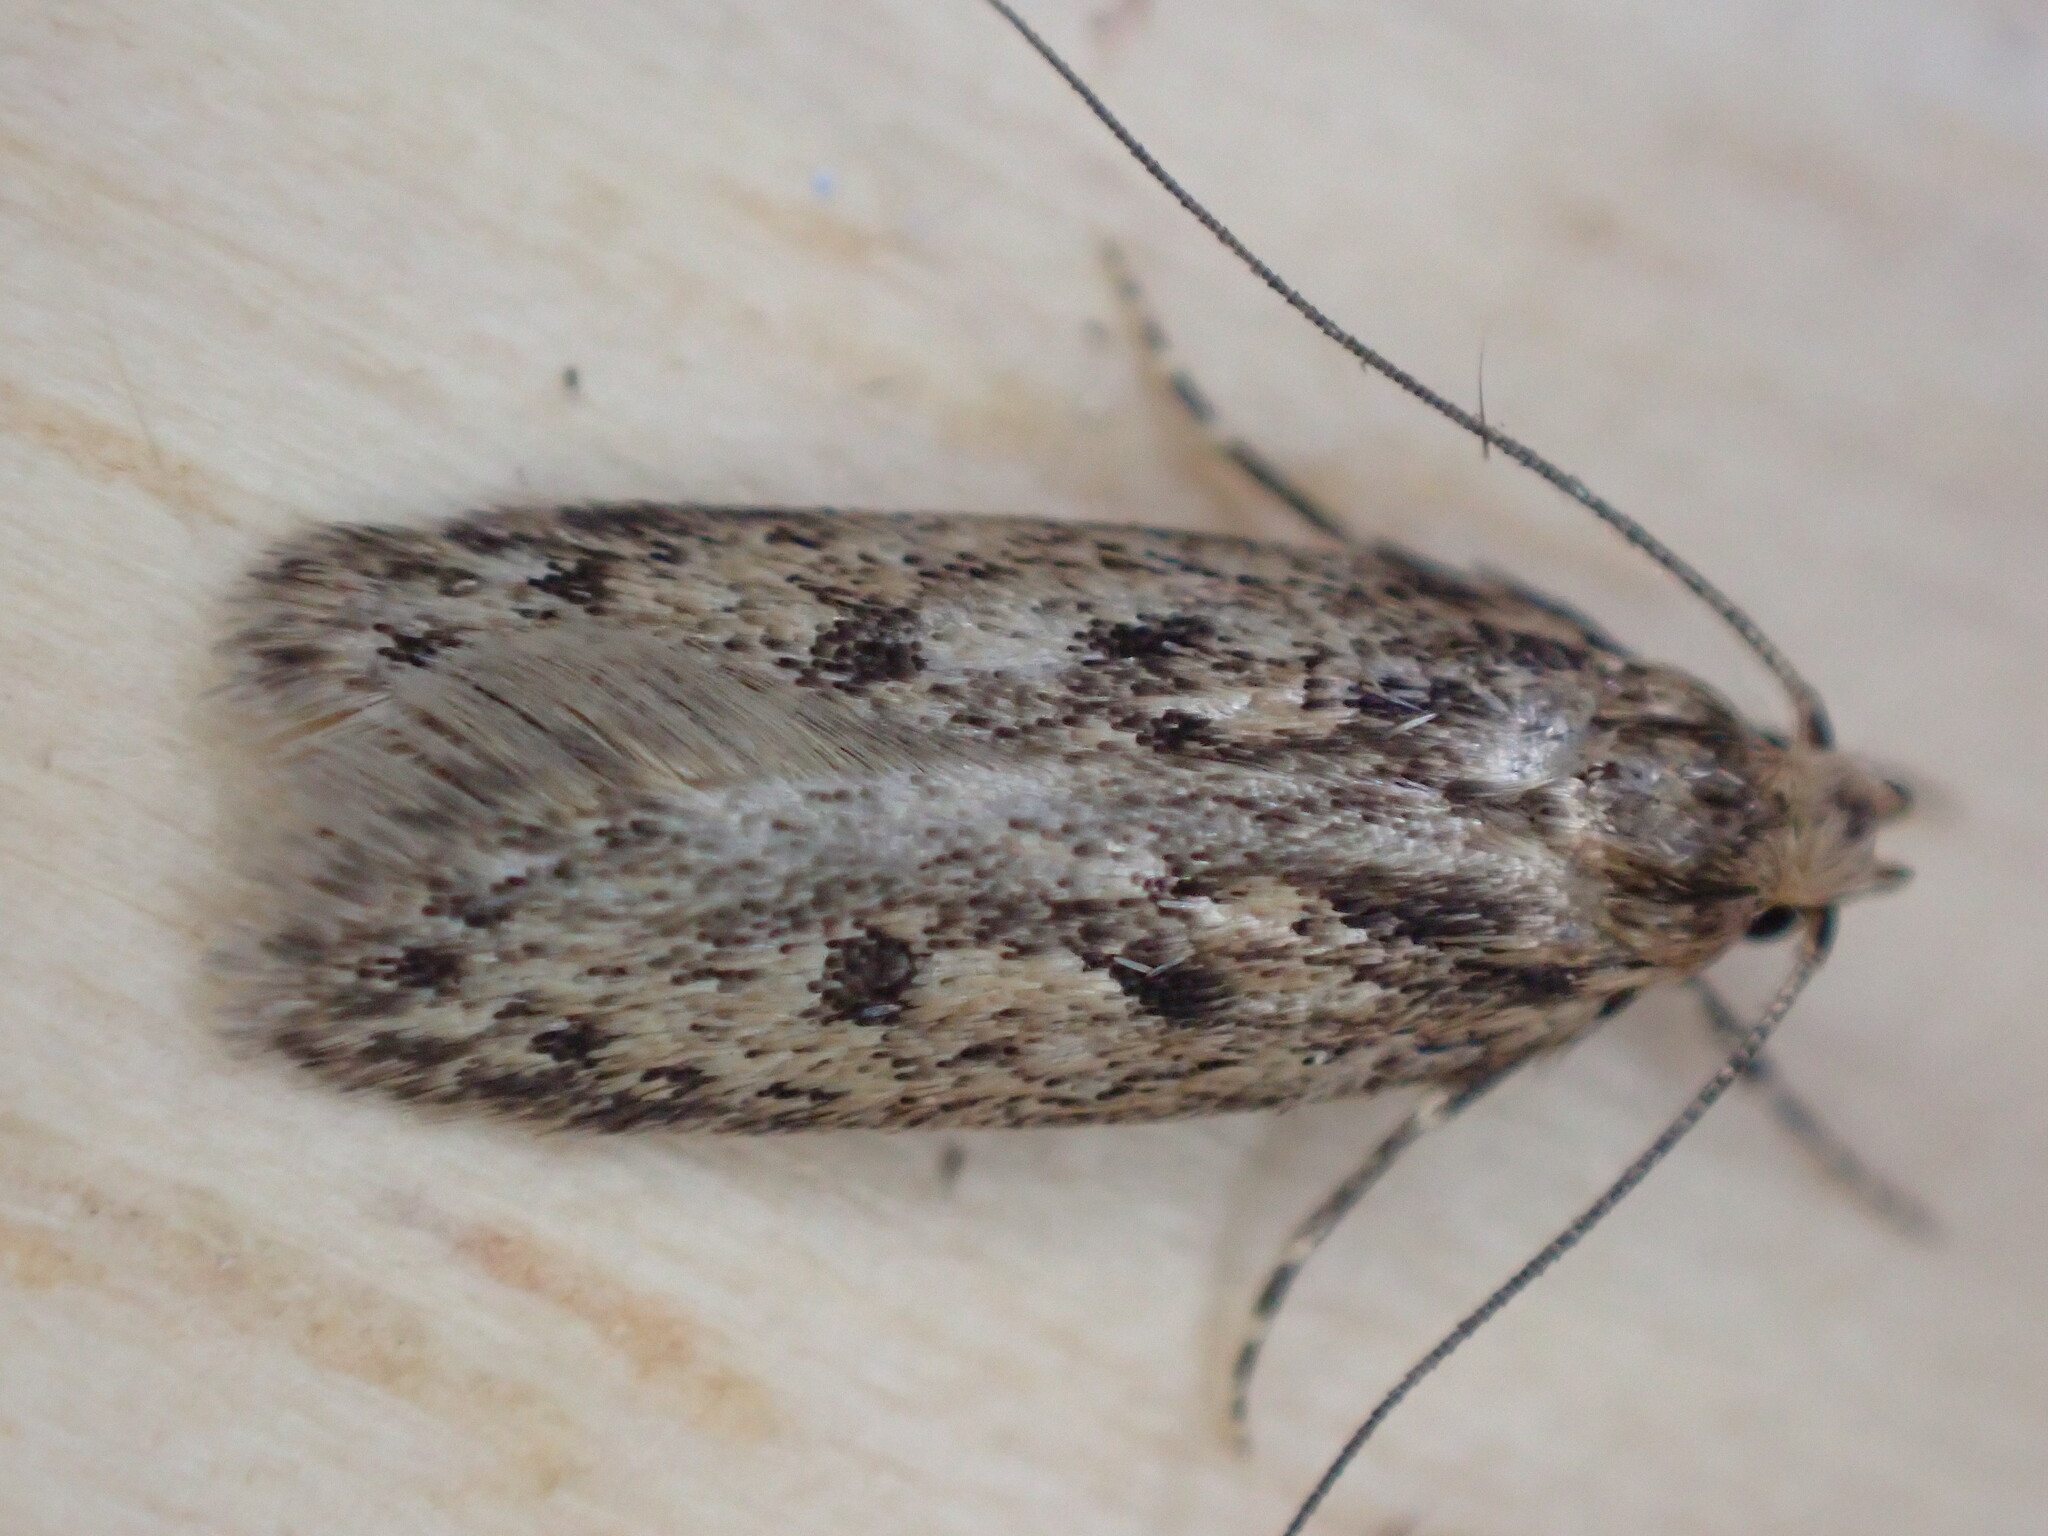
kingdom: Animalia
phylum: Arthropoda
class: Insecta
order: Lepidoptera
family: Oecophoridae
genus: Hofmannophila
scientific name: Hofmannophila pseudospretella
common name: Brown house moth
